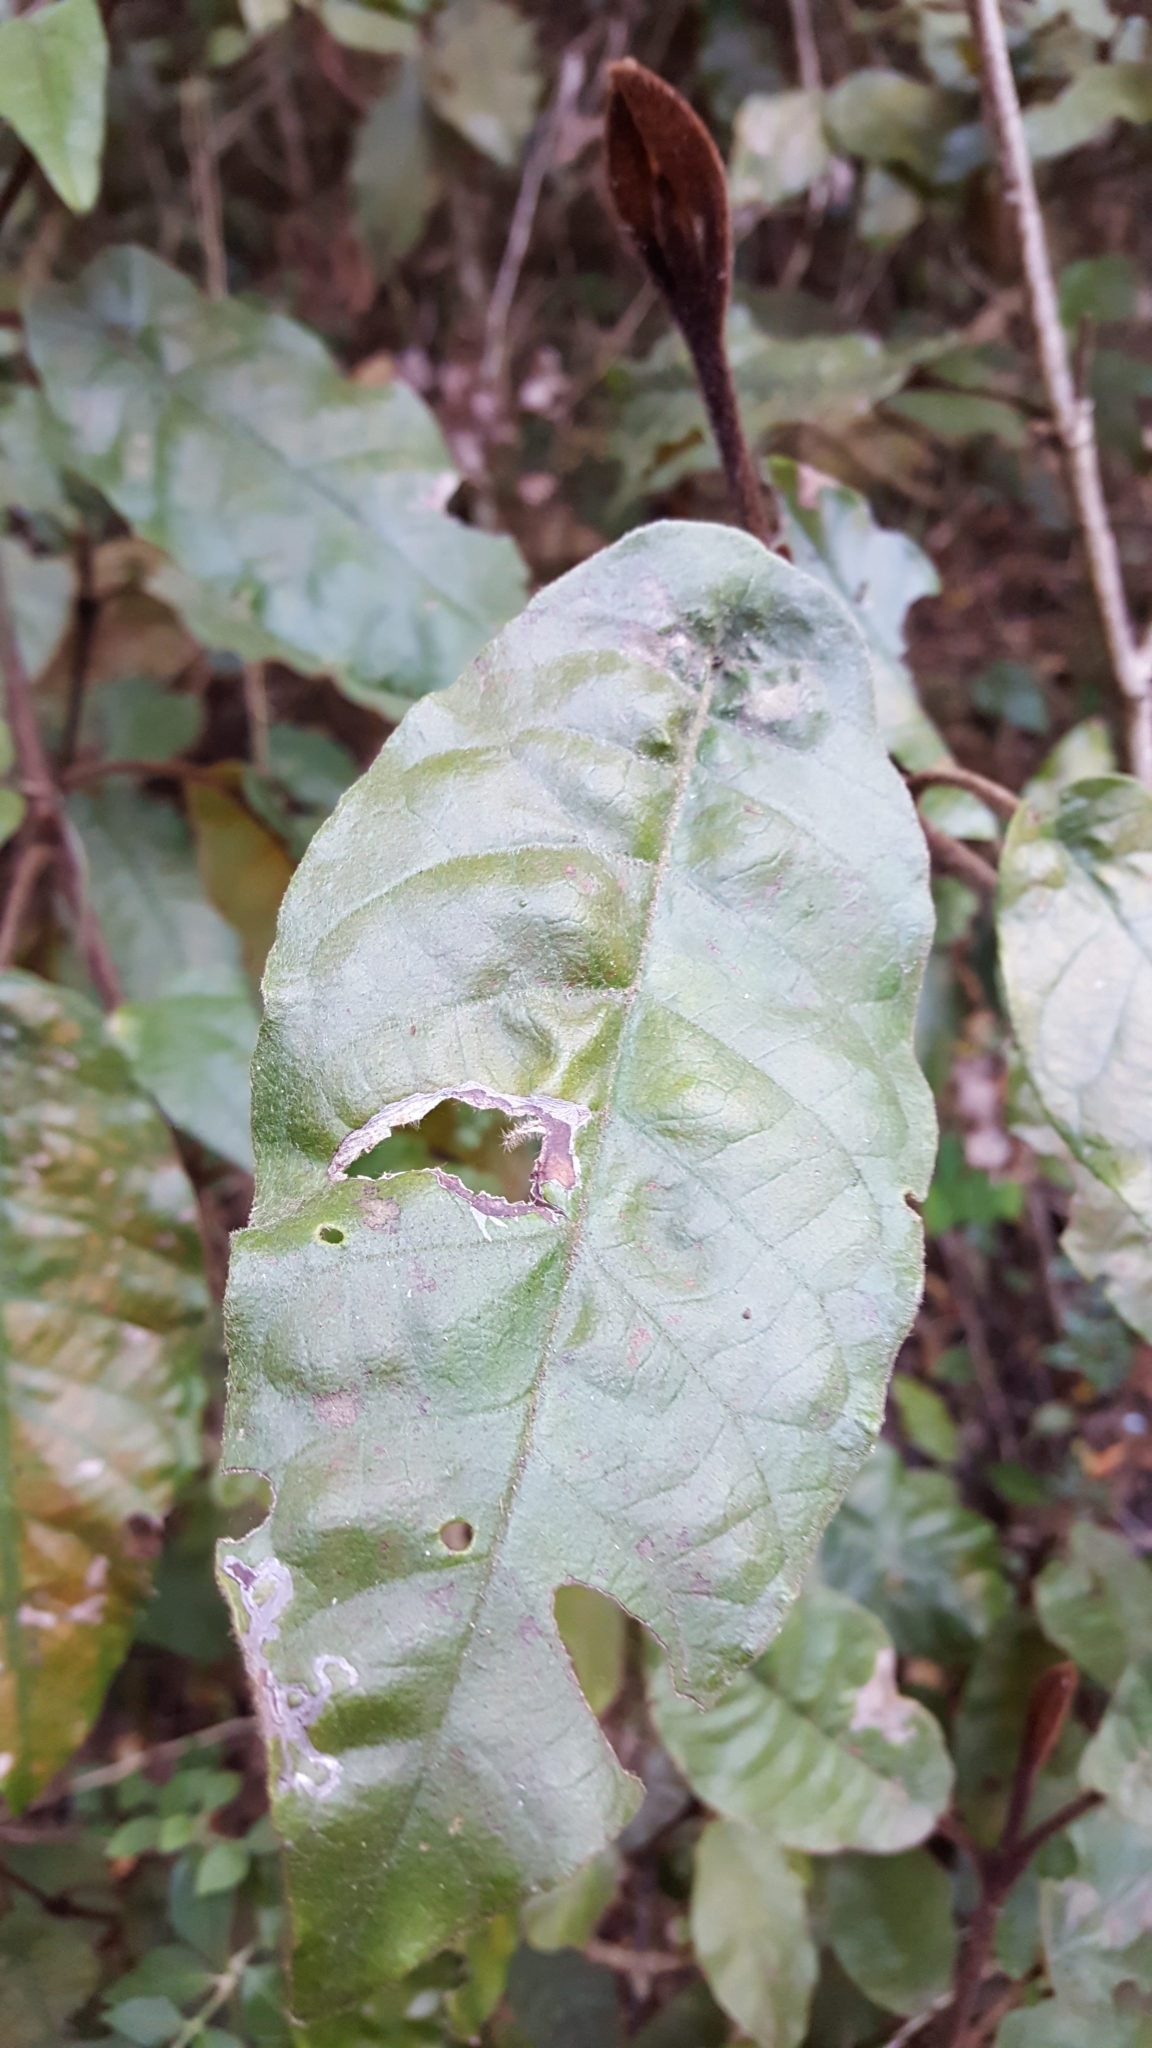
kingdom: Plantae
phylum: Tracheophyta
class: Magnoliopsida
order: Saxifragales
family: Hamamelidaceae
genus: Trichocladus
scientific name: Trichocladus crinitus
